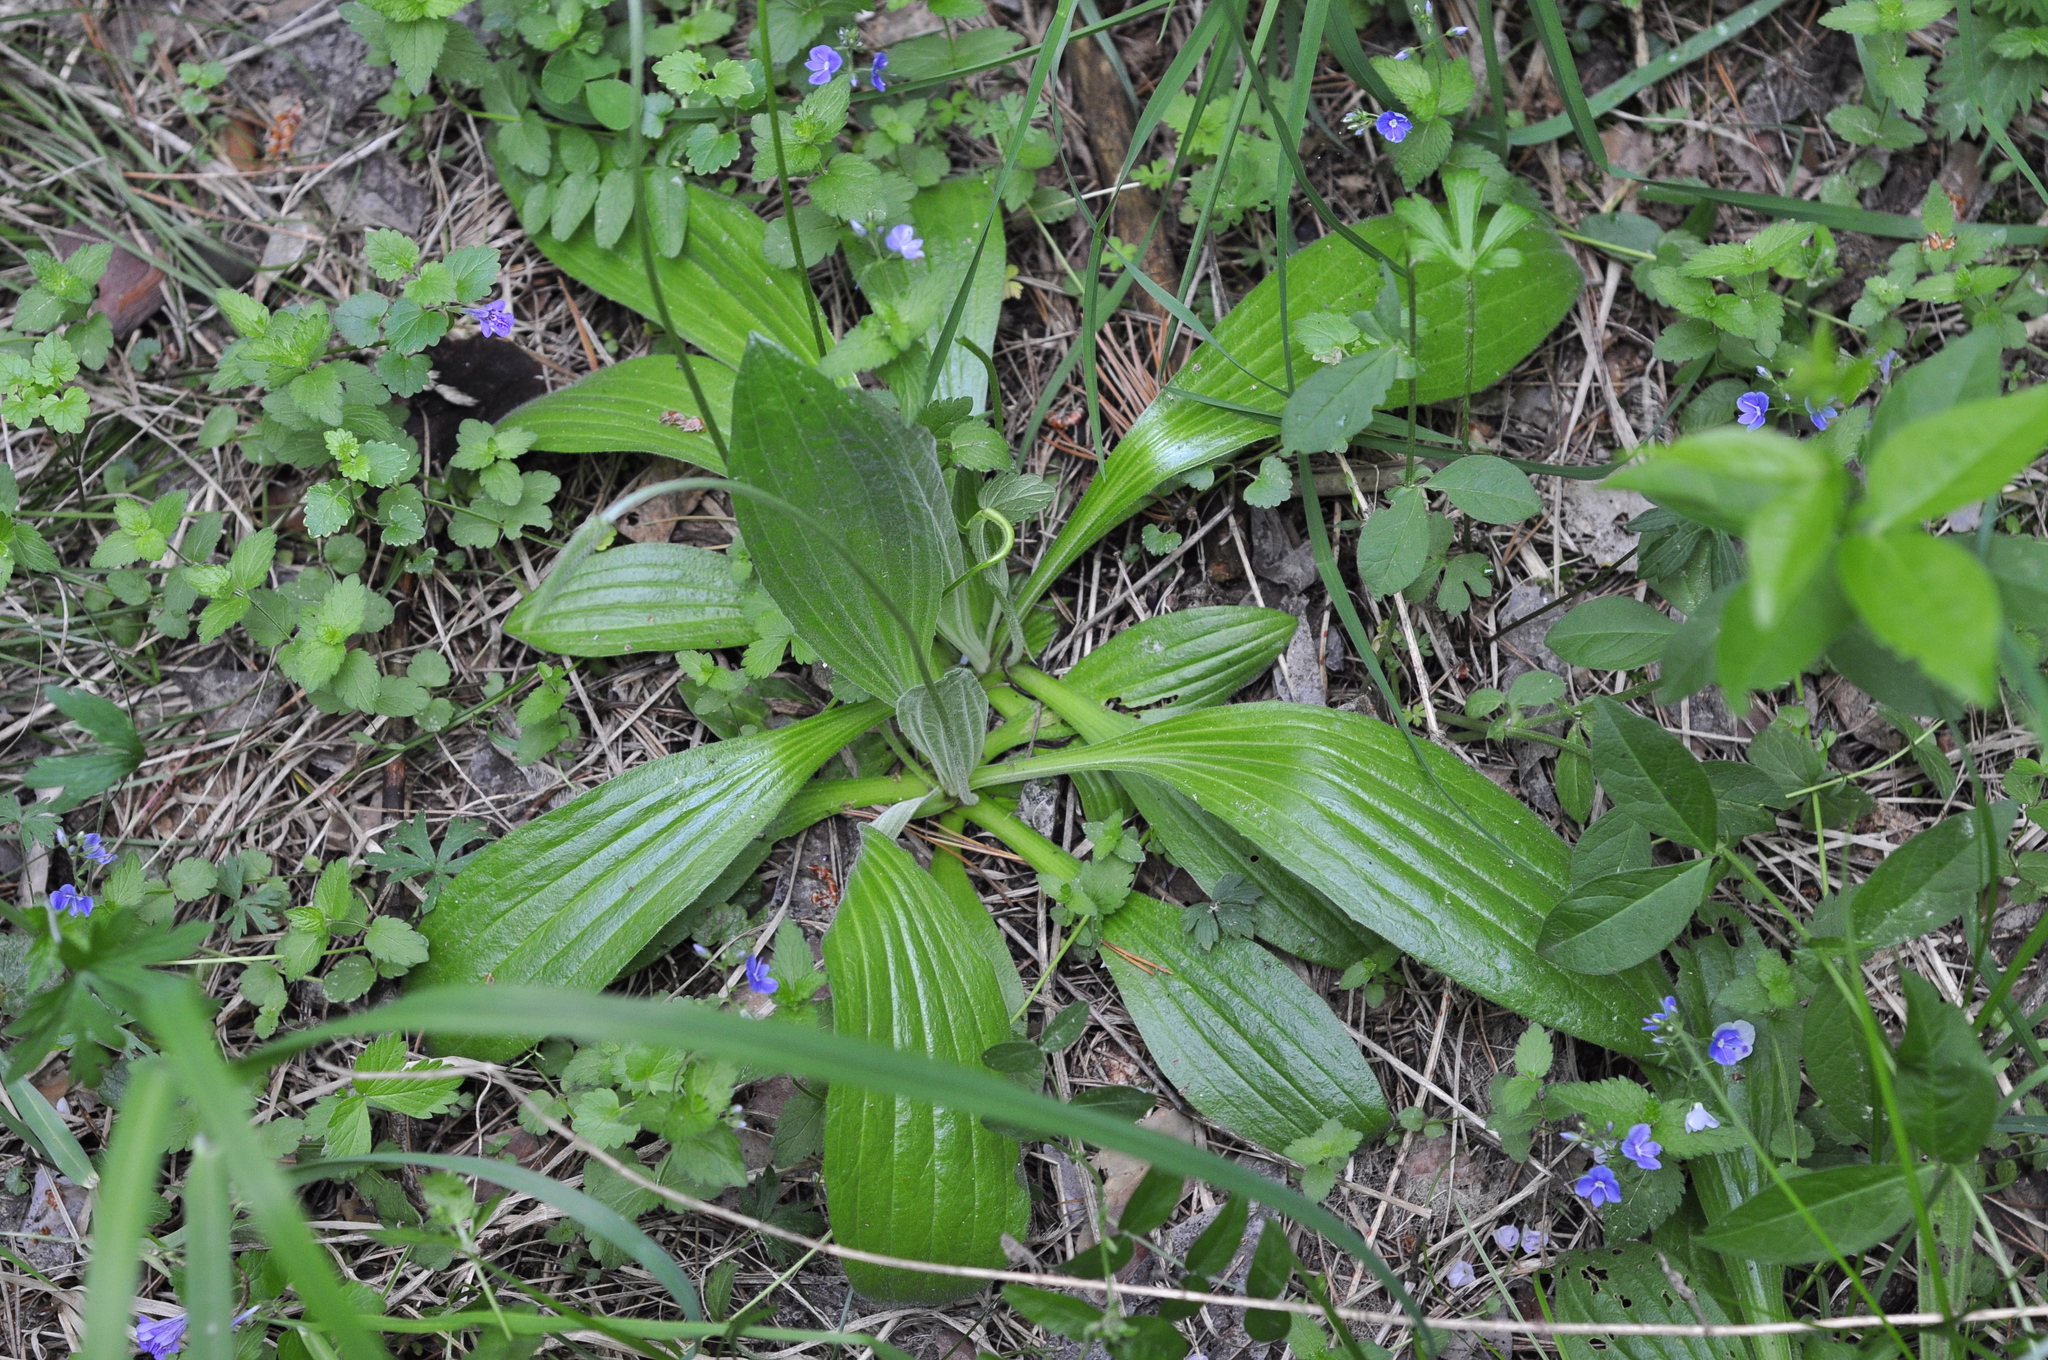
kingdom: Plantae
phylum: Tracheophyta
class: Magnoliopsida
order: Lamiales
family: Plantaginaceae
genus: Plantago
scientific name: Plantago urvillei
